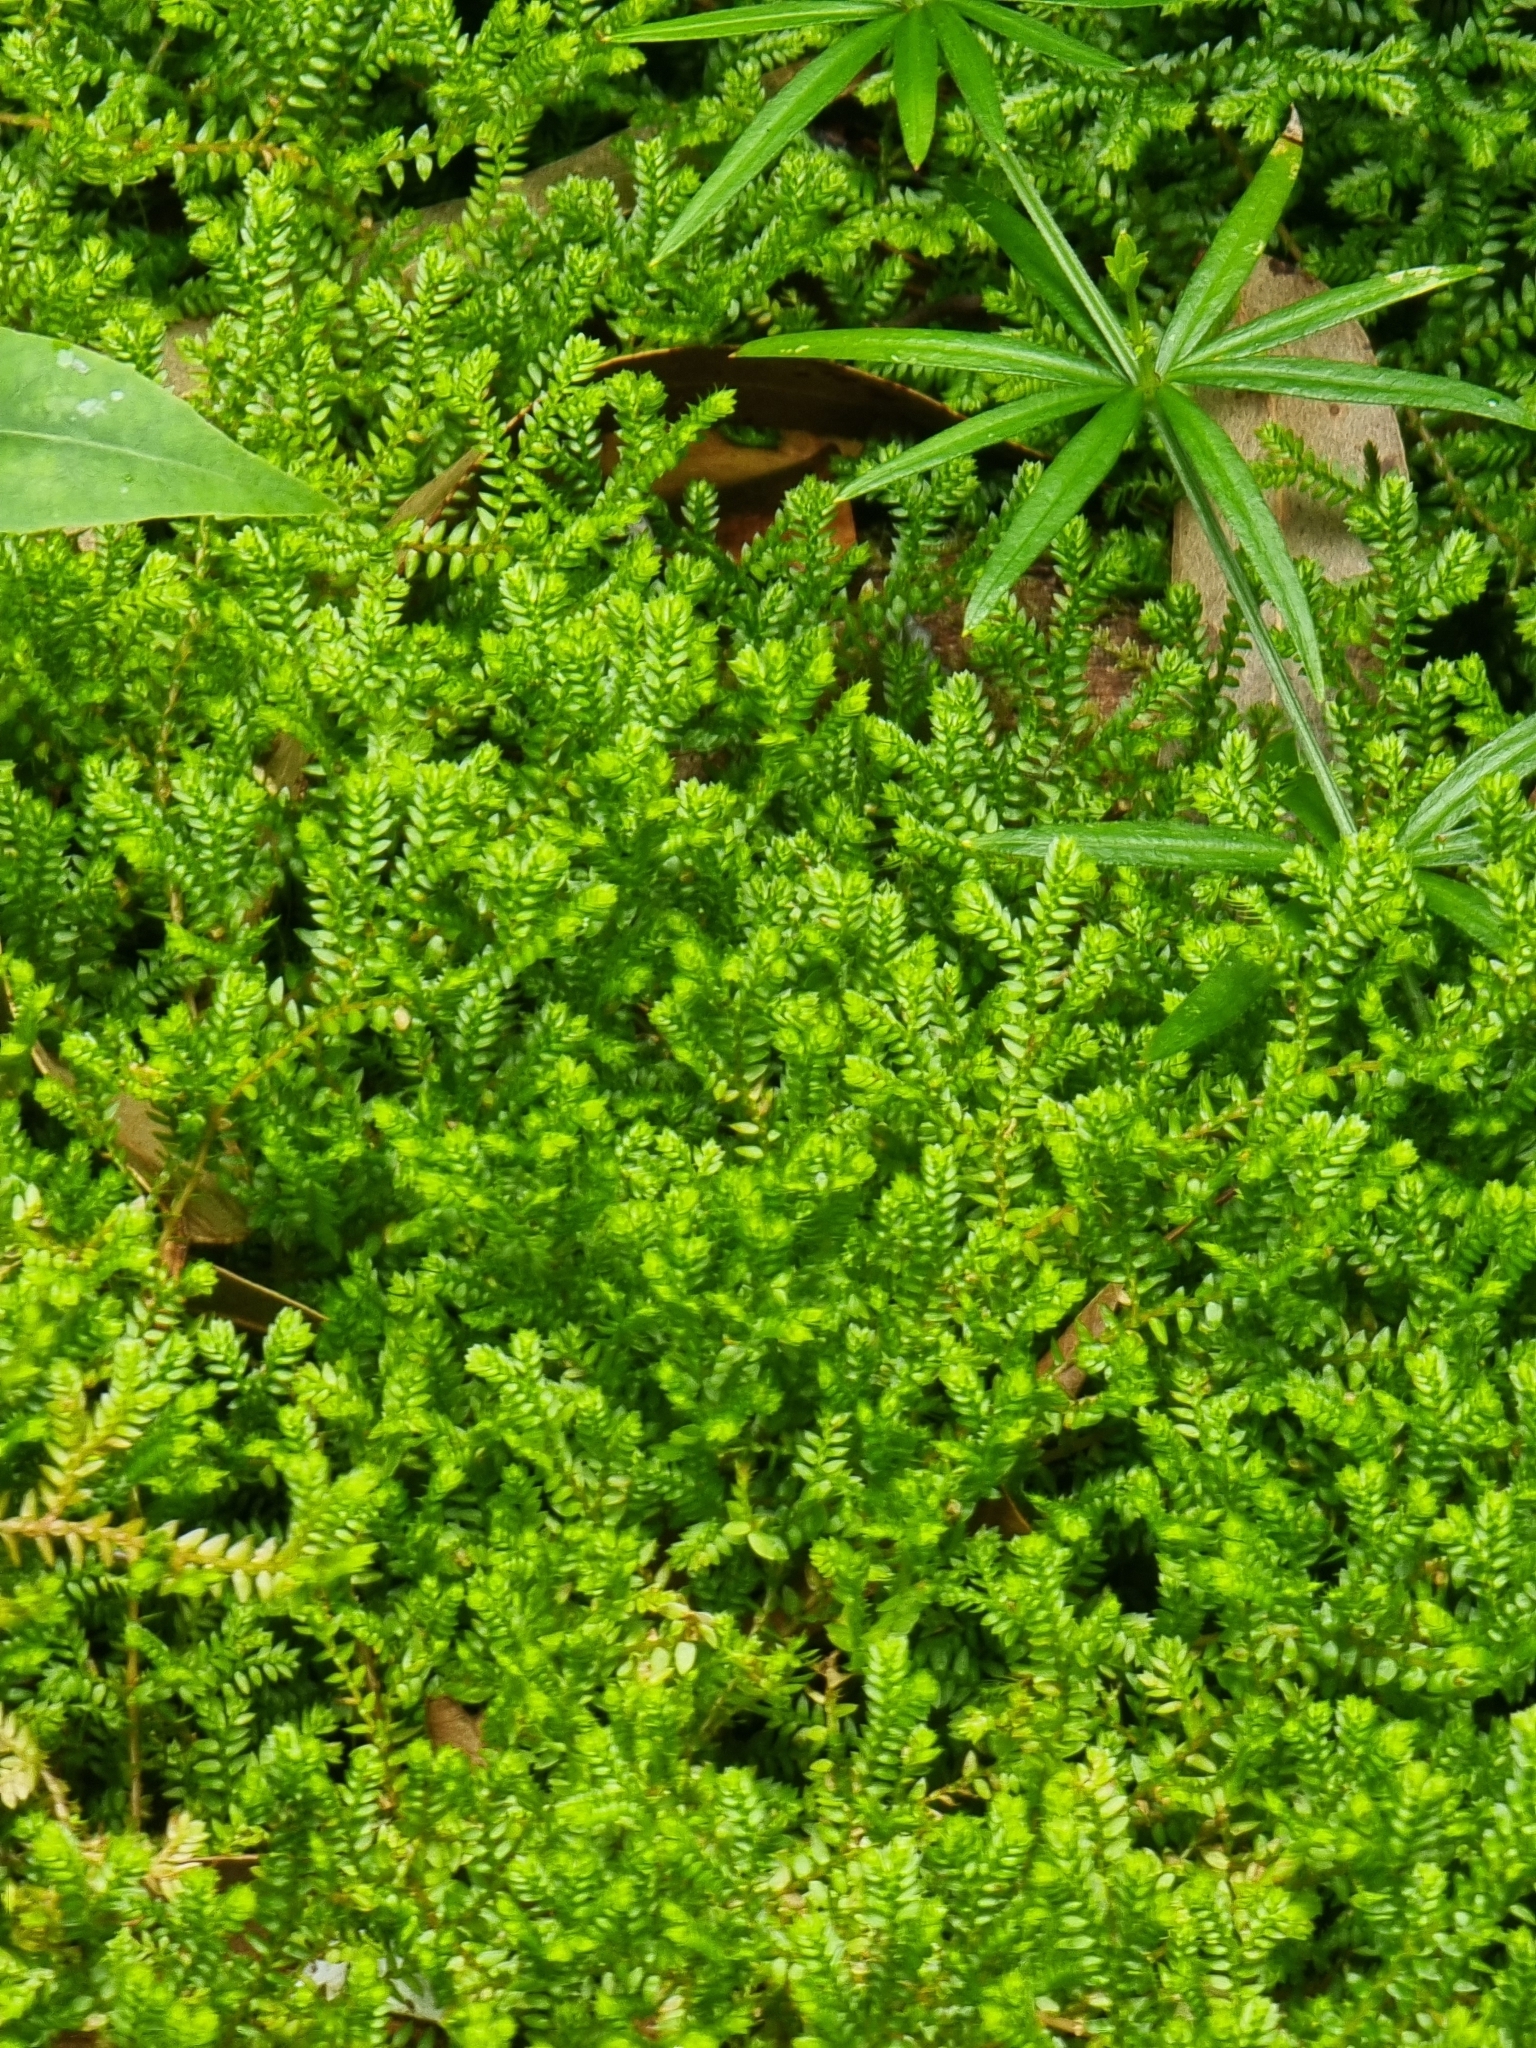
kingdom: Plantae
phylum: Tracheophyta
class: Lycopodiopsida
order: Selaginellales
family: Selaginellaceae
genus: Selaginella
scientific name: Selaginella kraussiana
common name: Krauss' spikemoss
